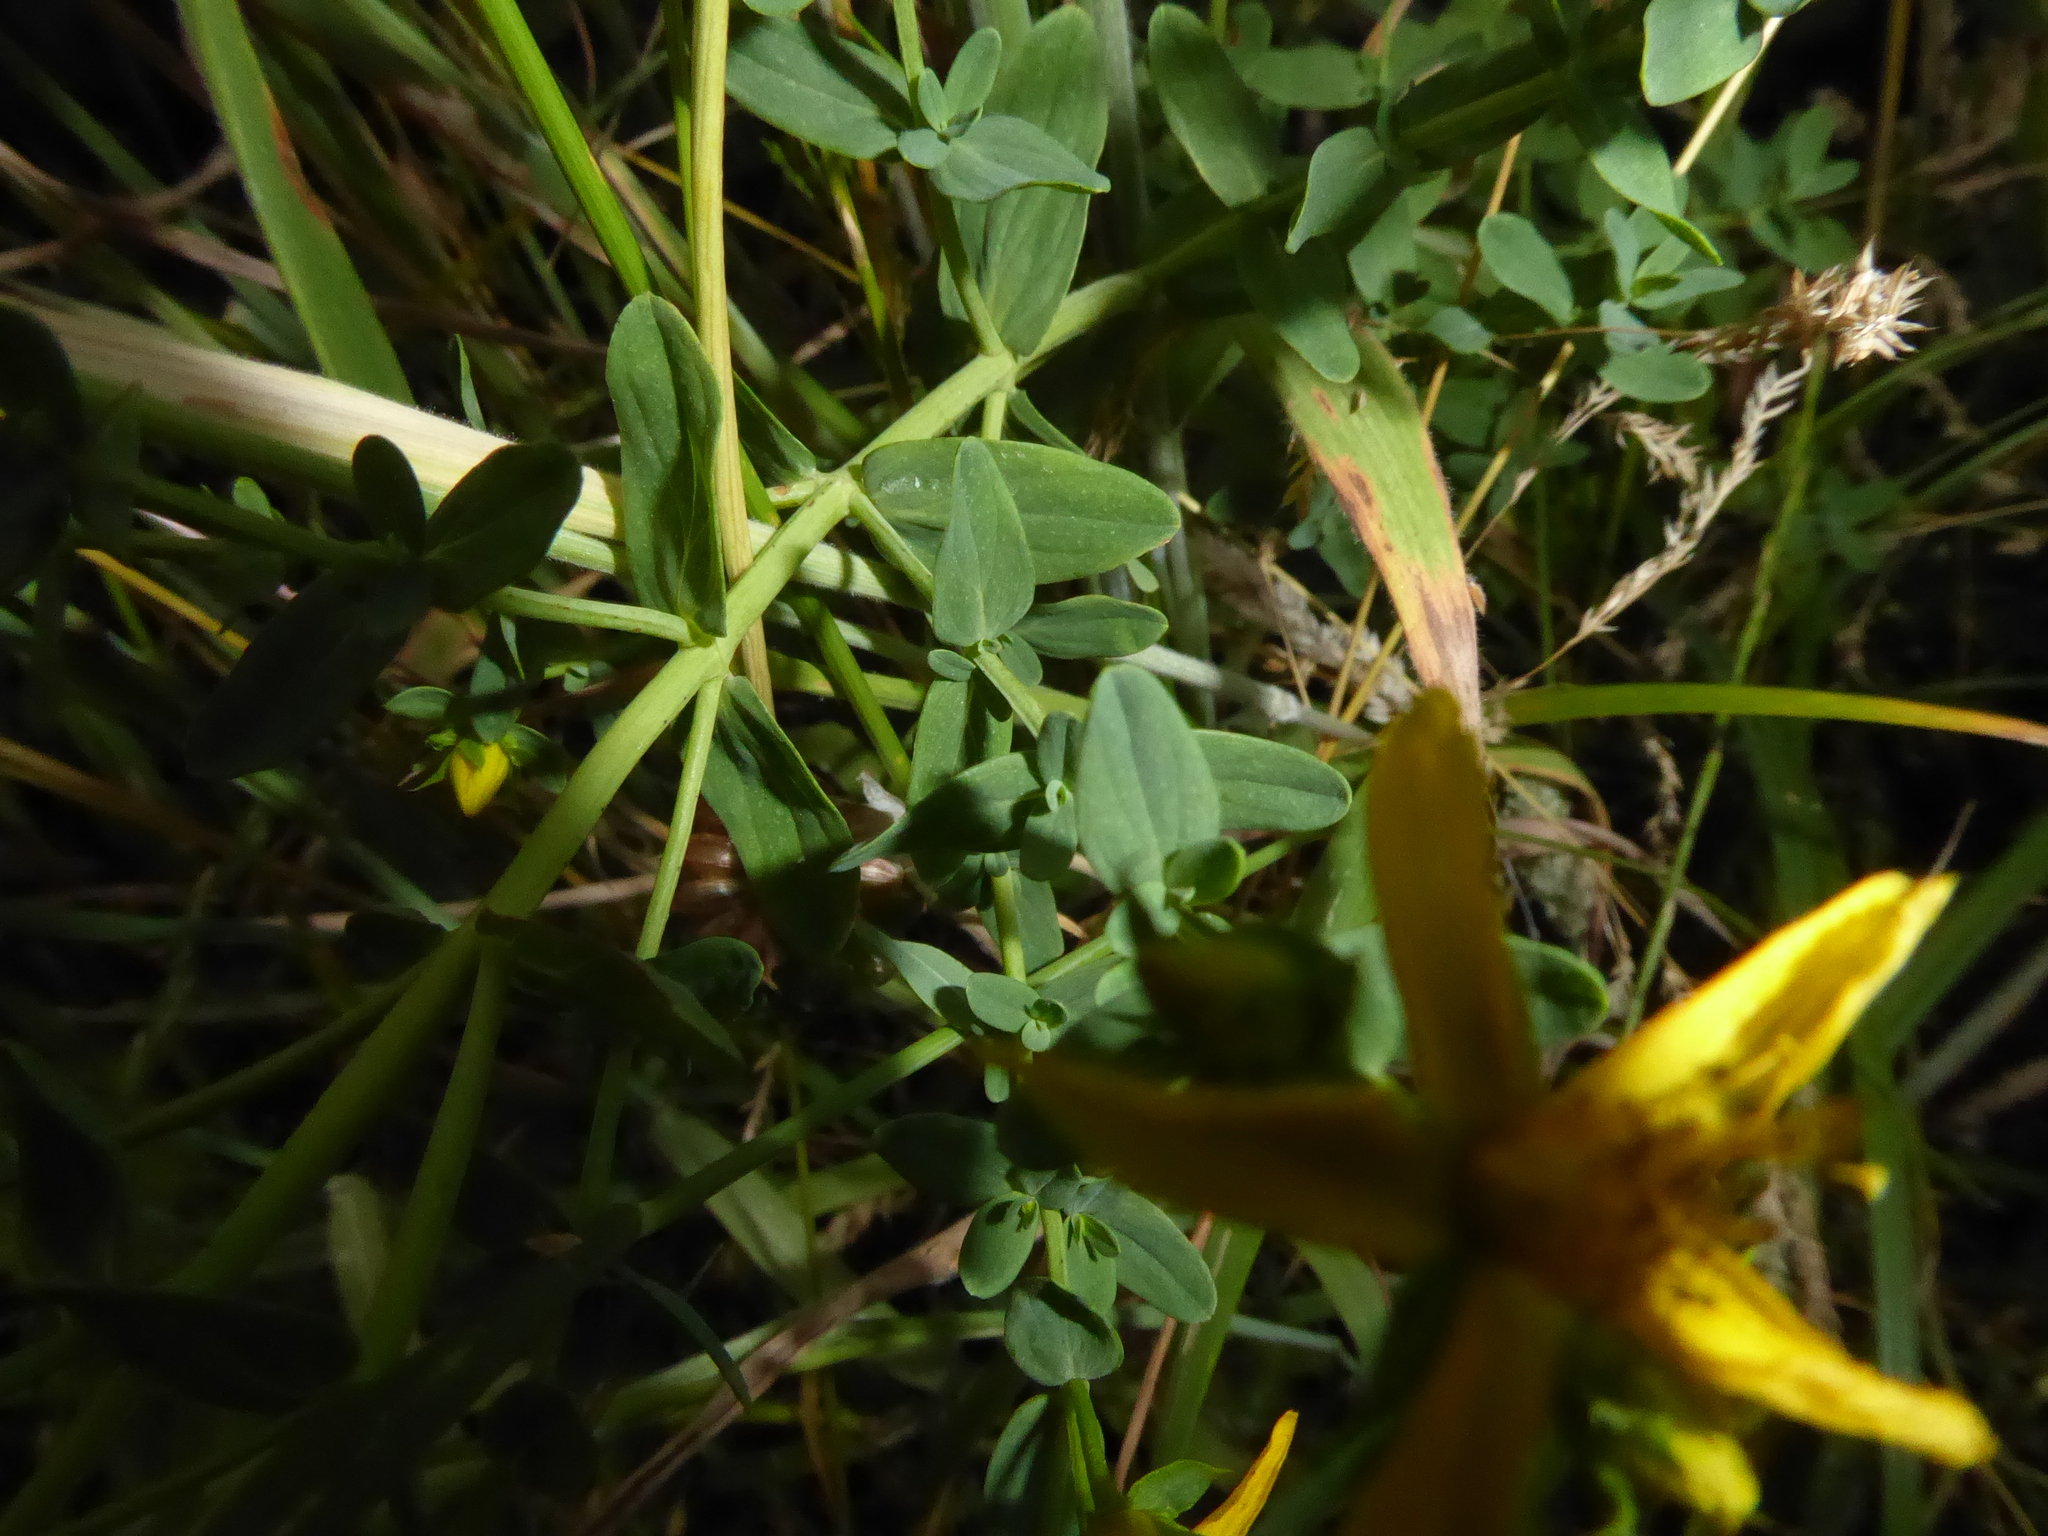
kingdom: Plantae
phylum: Tracheophyta
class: Magnoliopsida
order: Malpighiales
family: Hypericaceae
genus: Hypericum
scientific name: Hypericum perforatum
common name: Common st. johnswort
